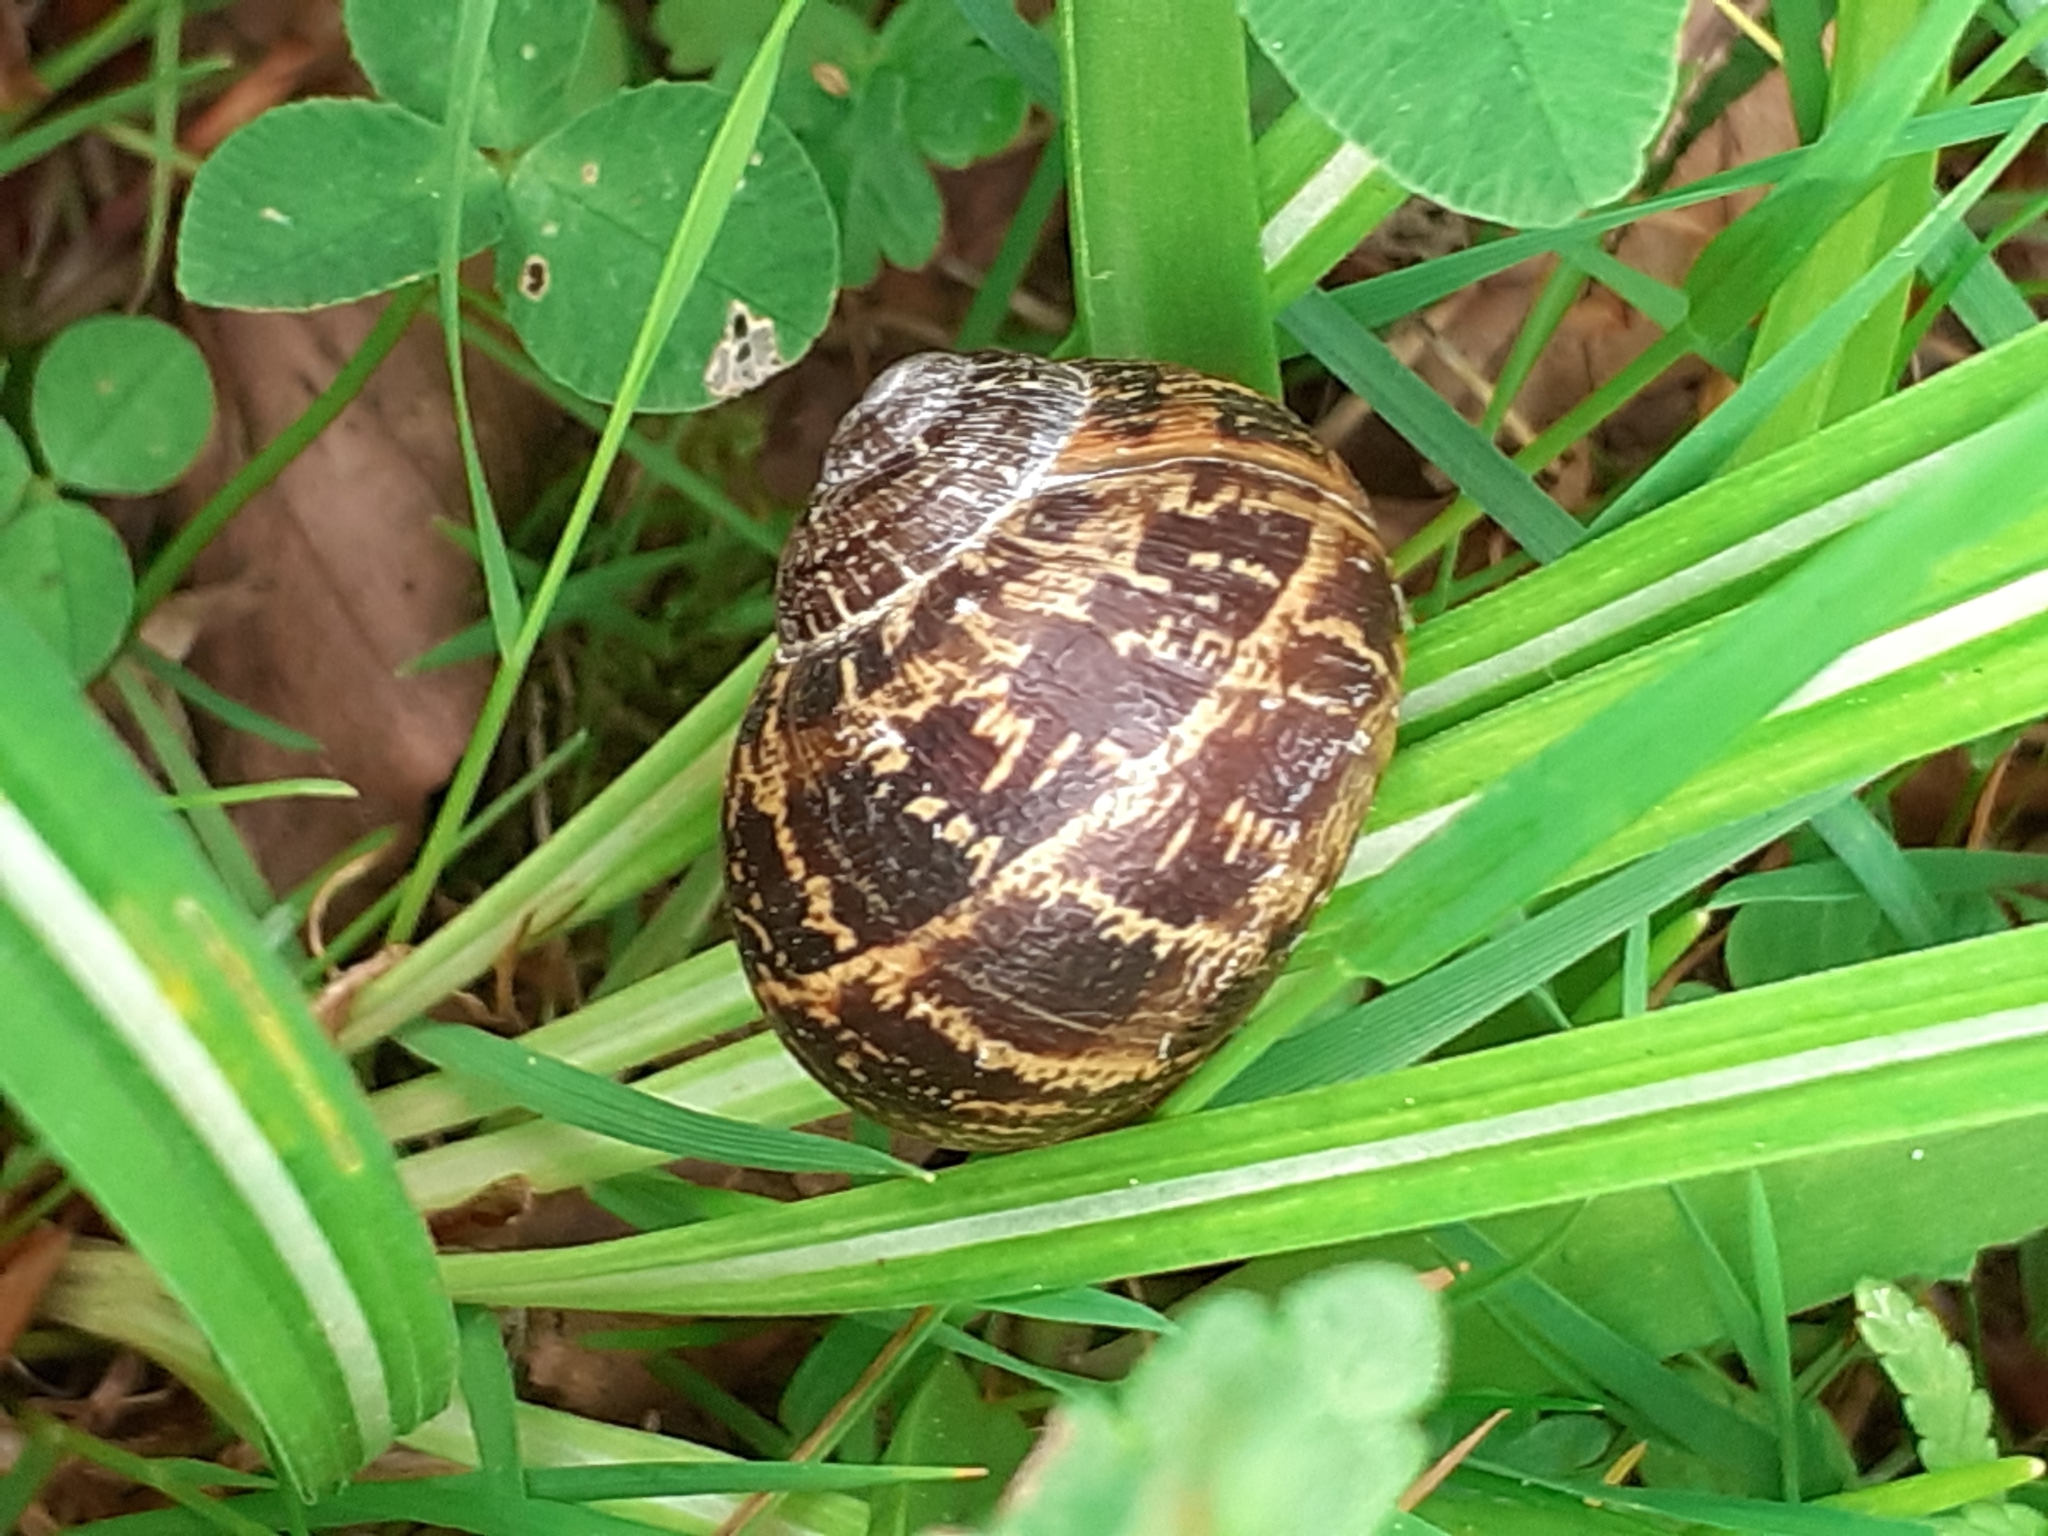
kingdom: Animalia
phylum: Mollusca
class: Gastropoda
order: Stylommatophora
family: Helicidae
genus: Cornu
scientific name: Cornu aspersum
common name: Brown garden snail
